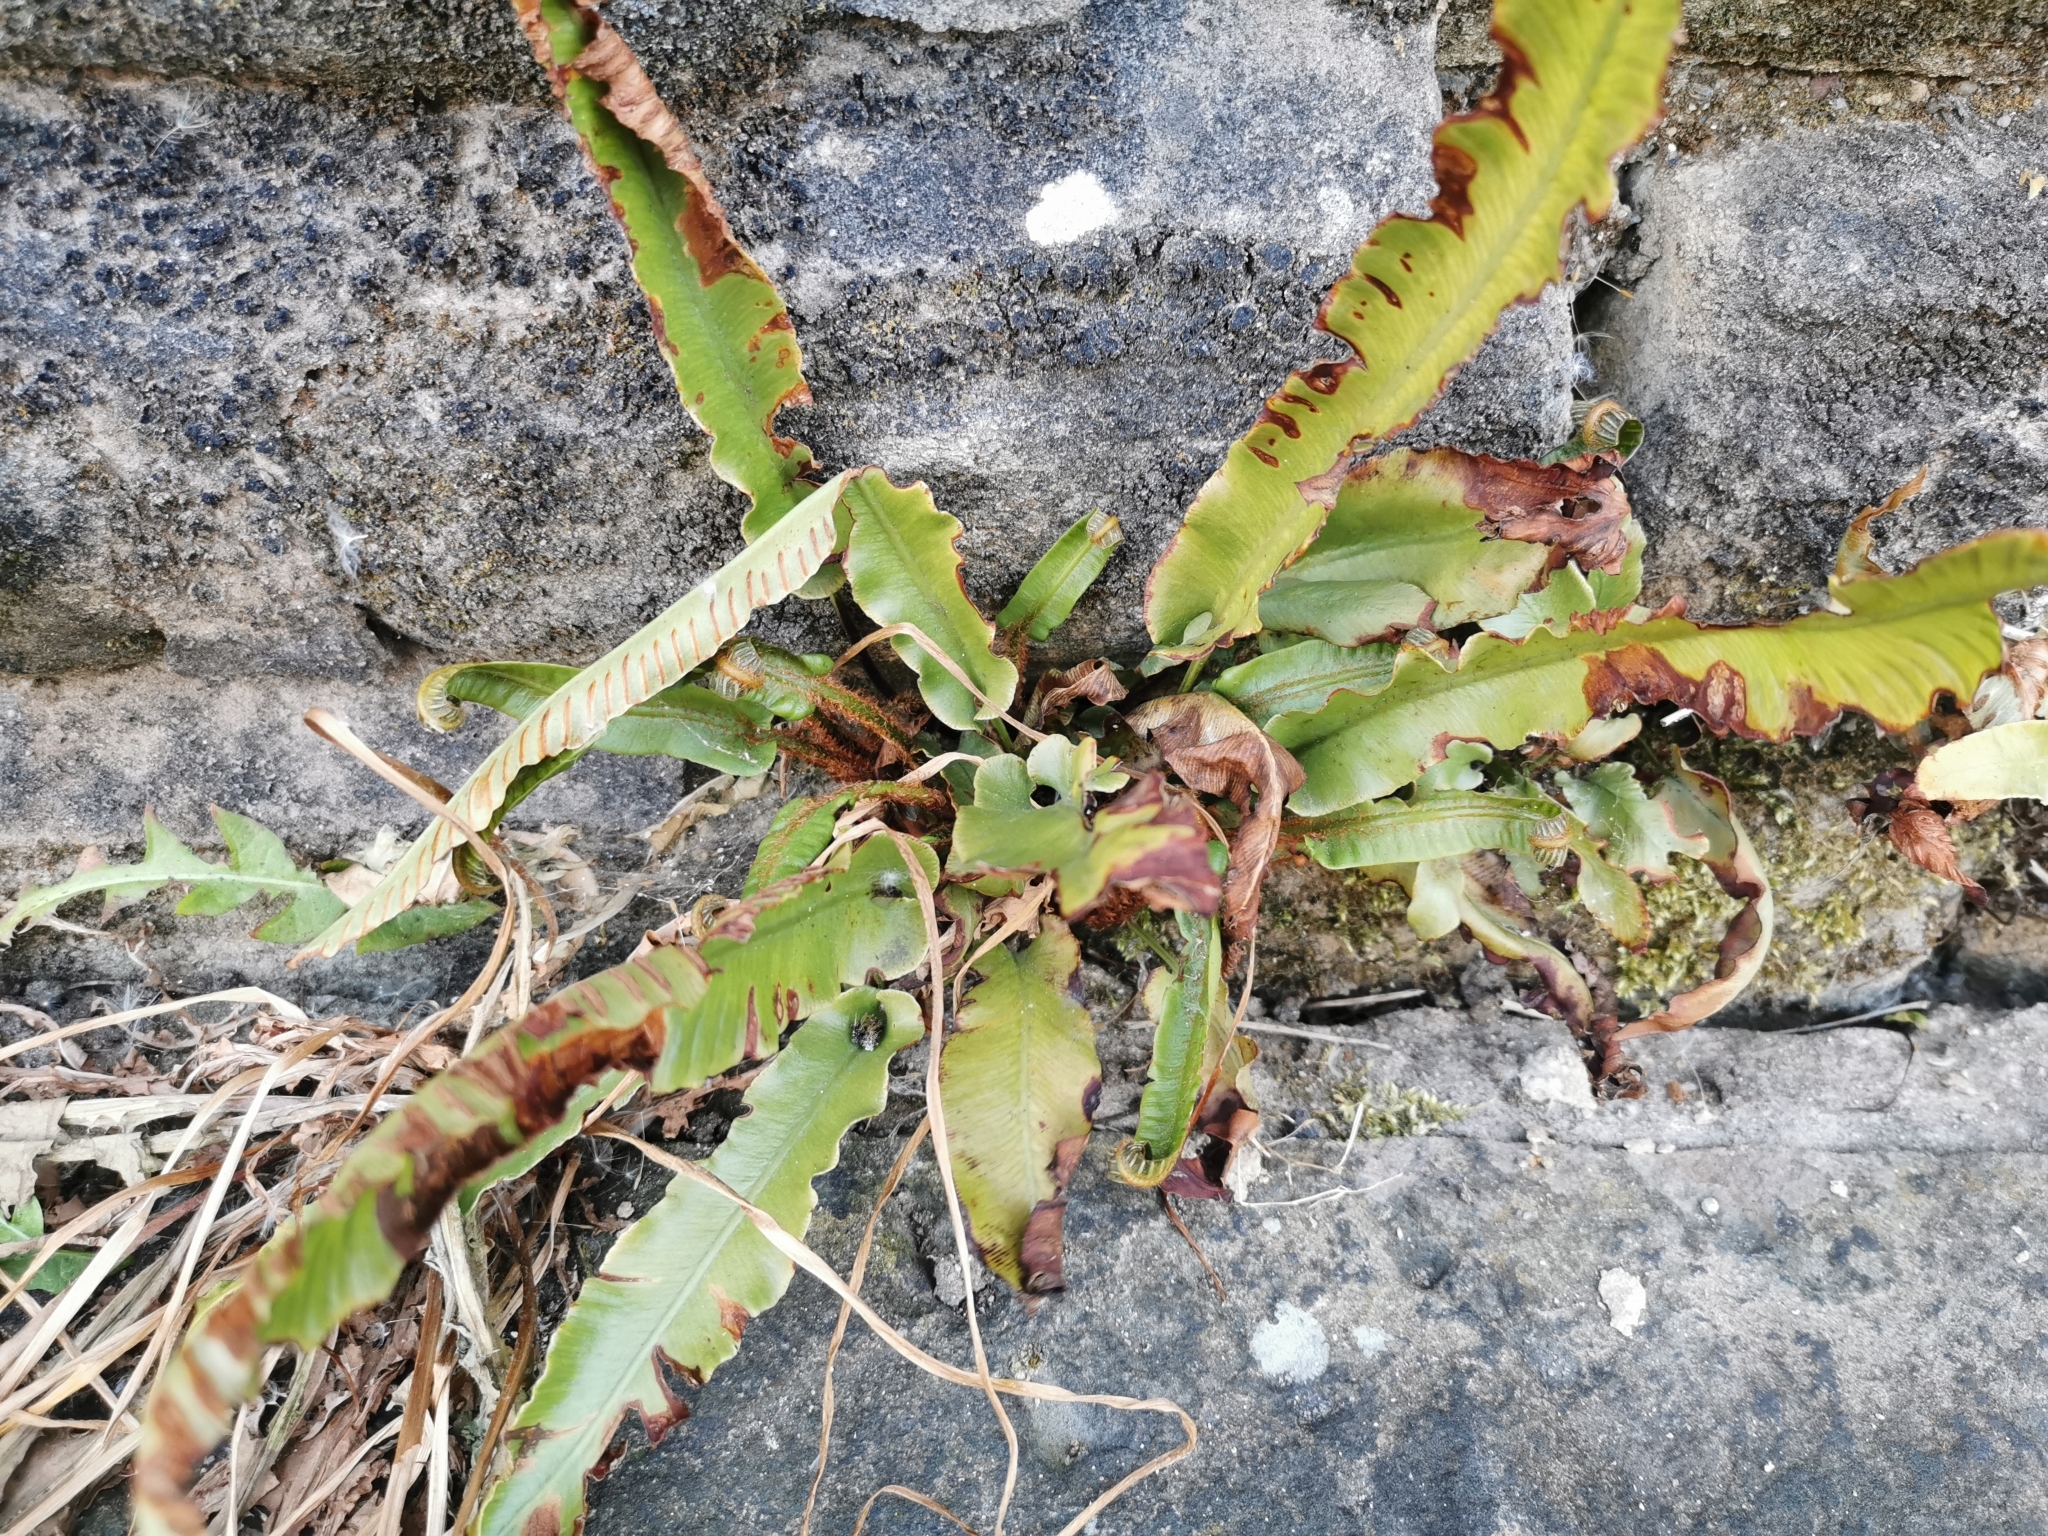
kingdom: Plantae
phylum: Tracheophyta
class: Polypodiopsida
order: Polypodiales
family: Aspleniaceae
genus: Asplenium
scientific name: Asplenium scolopendrium
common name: Hart's-tongue fern
